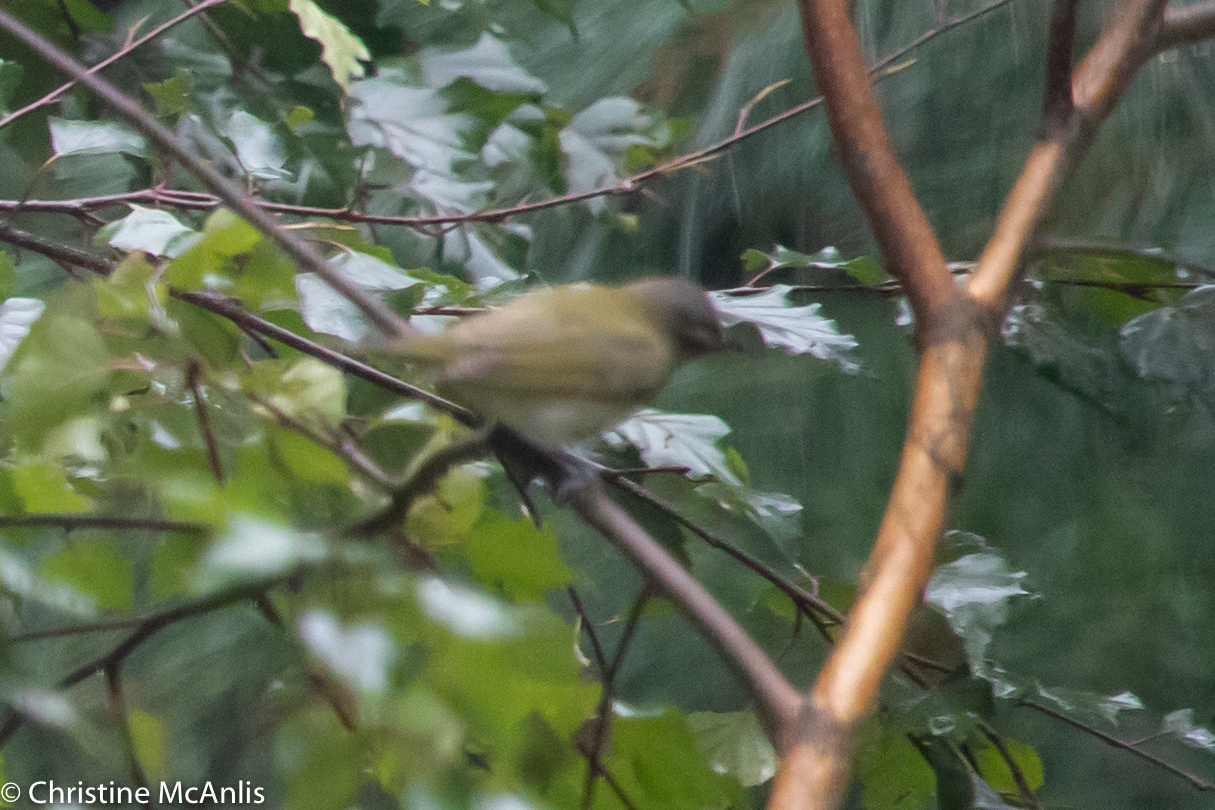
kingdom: Animalia
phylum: Chordata
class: Aves
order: Passeriformes
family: Vireonidae
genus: Vireo
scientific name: Vireo olivaceus
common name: Red-eyed vireo
